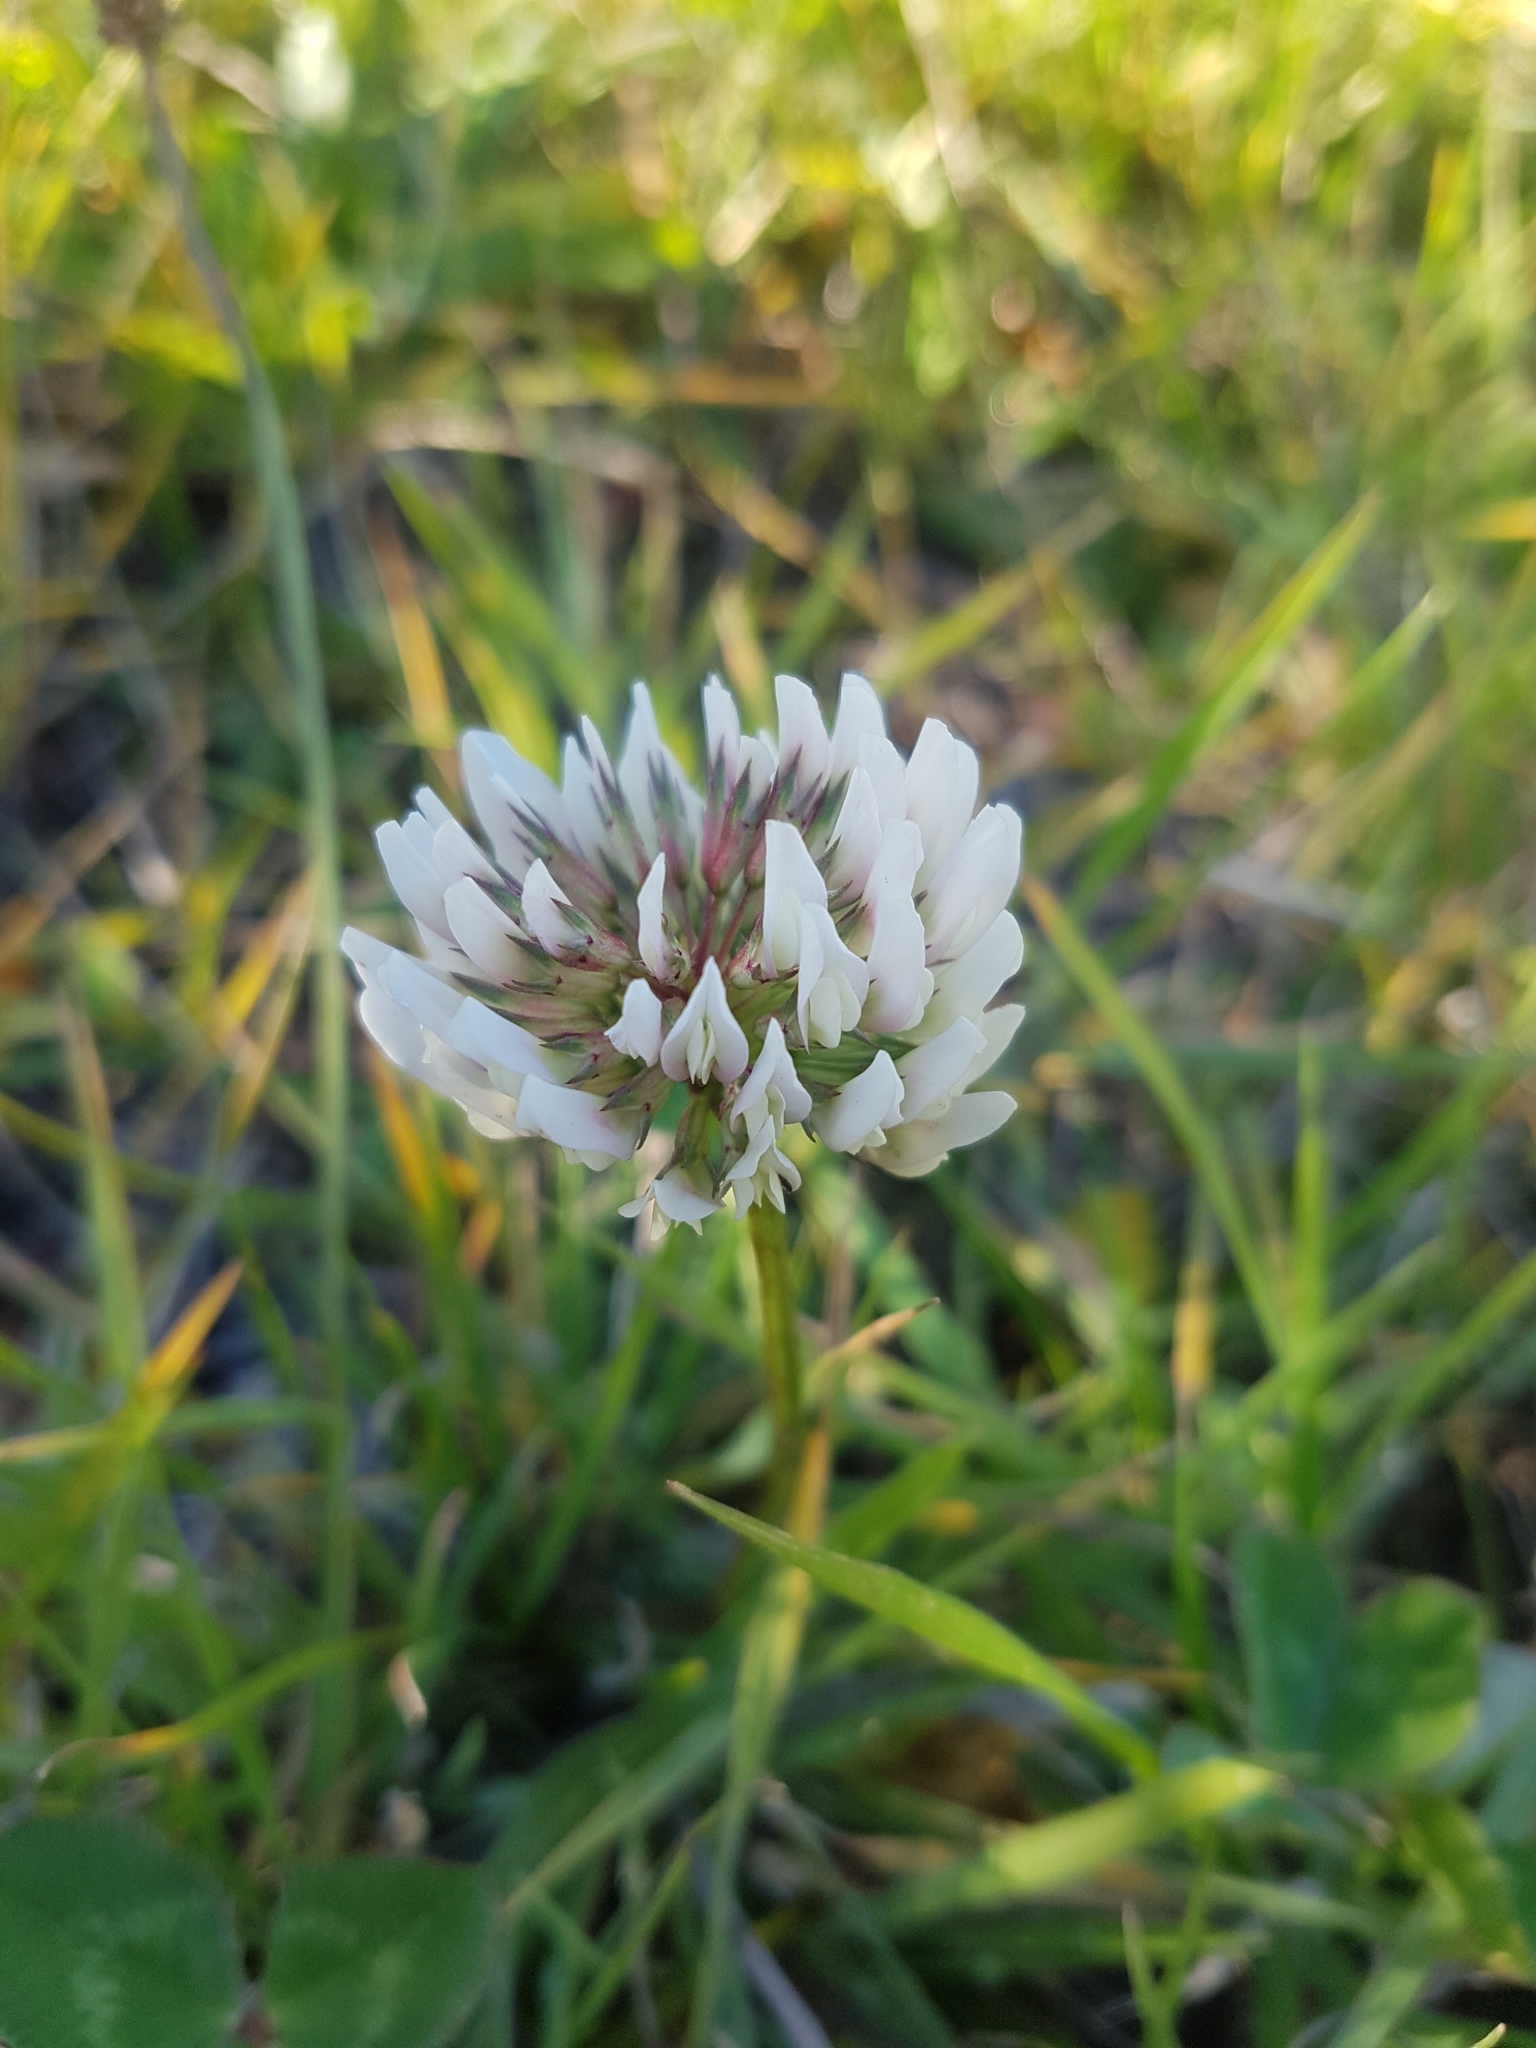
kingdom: Plantae
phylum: Tracheophyta
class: Magnoliopsida
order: Fabales
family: Fabaceae
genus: Trifolium
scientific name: Trifolium repens
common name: White clover
